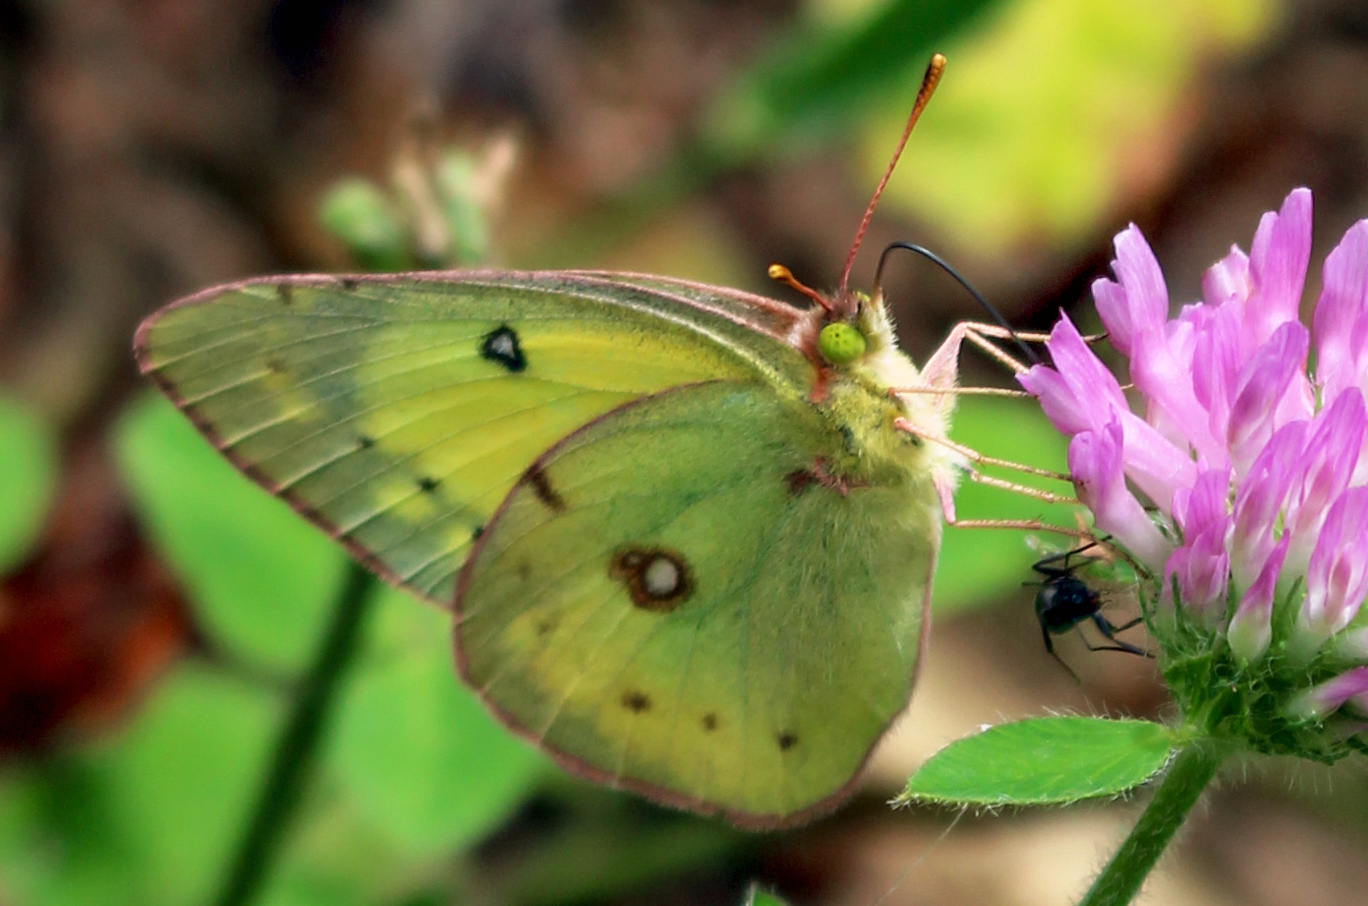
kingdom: Animalia
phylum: Arthropoda
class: Insecta
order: Lepidoptera
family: Pieridae
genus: Colias
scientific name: Colias philodice
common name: Clouded sulphur
